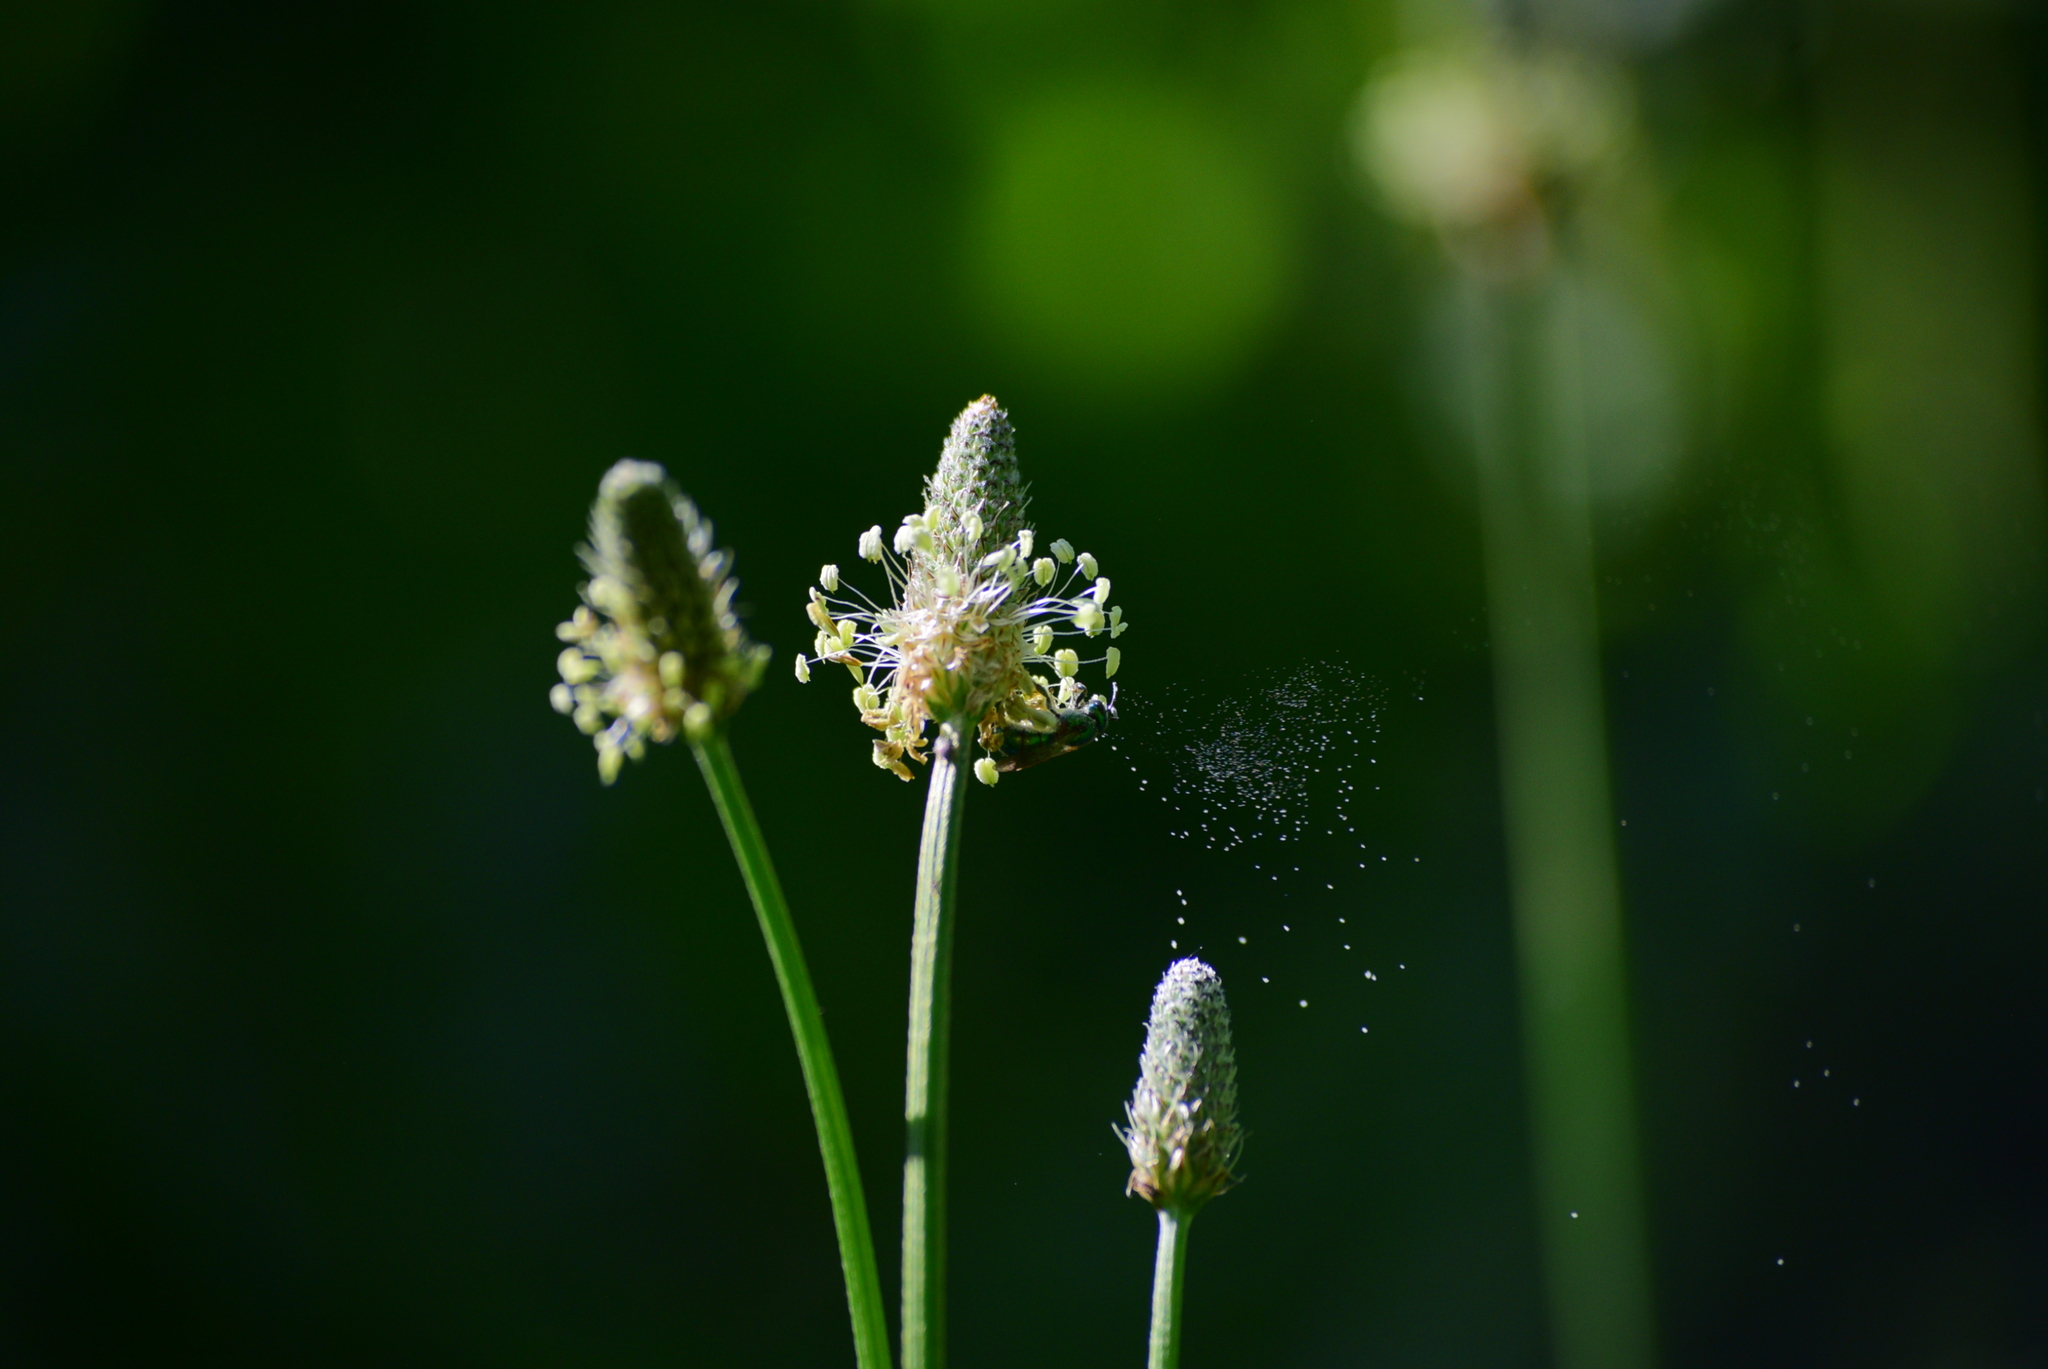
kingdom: Plantae
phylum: Tracheophyta
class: Magnoliopsida
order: Lamiales
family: Plantaginaceae
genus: Plantago
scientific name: Plantago lanceolata
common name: Ribwort plantain
